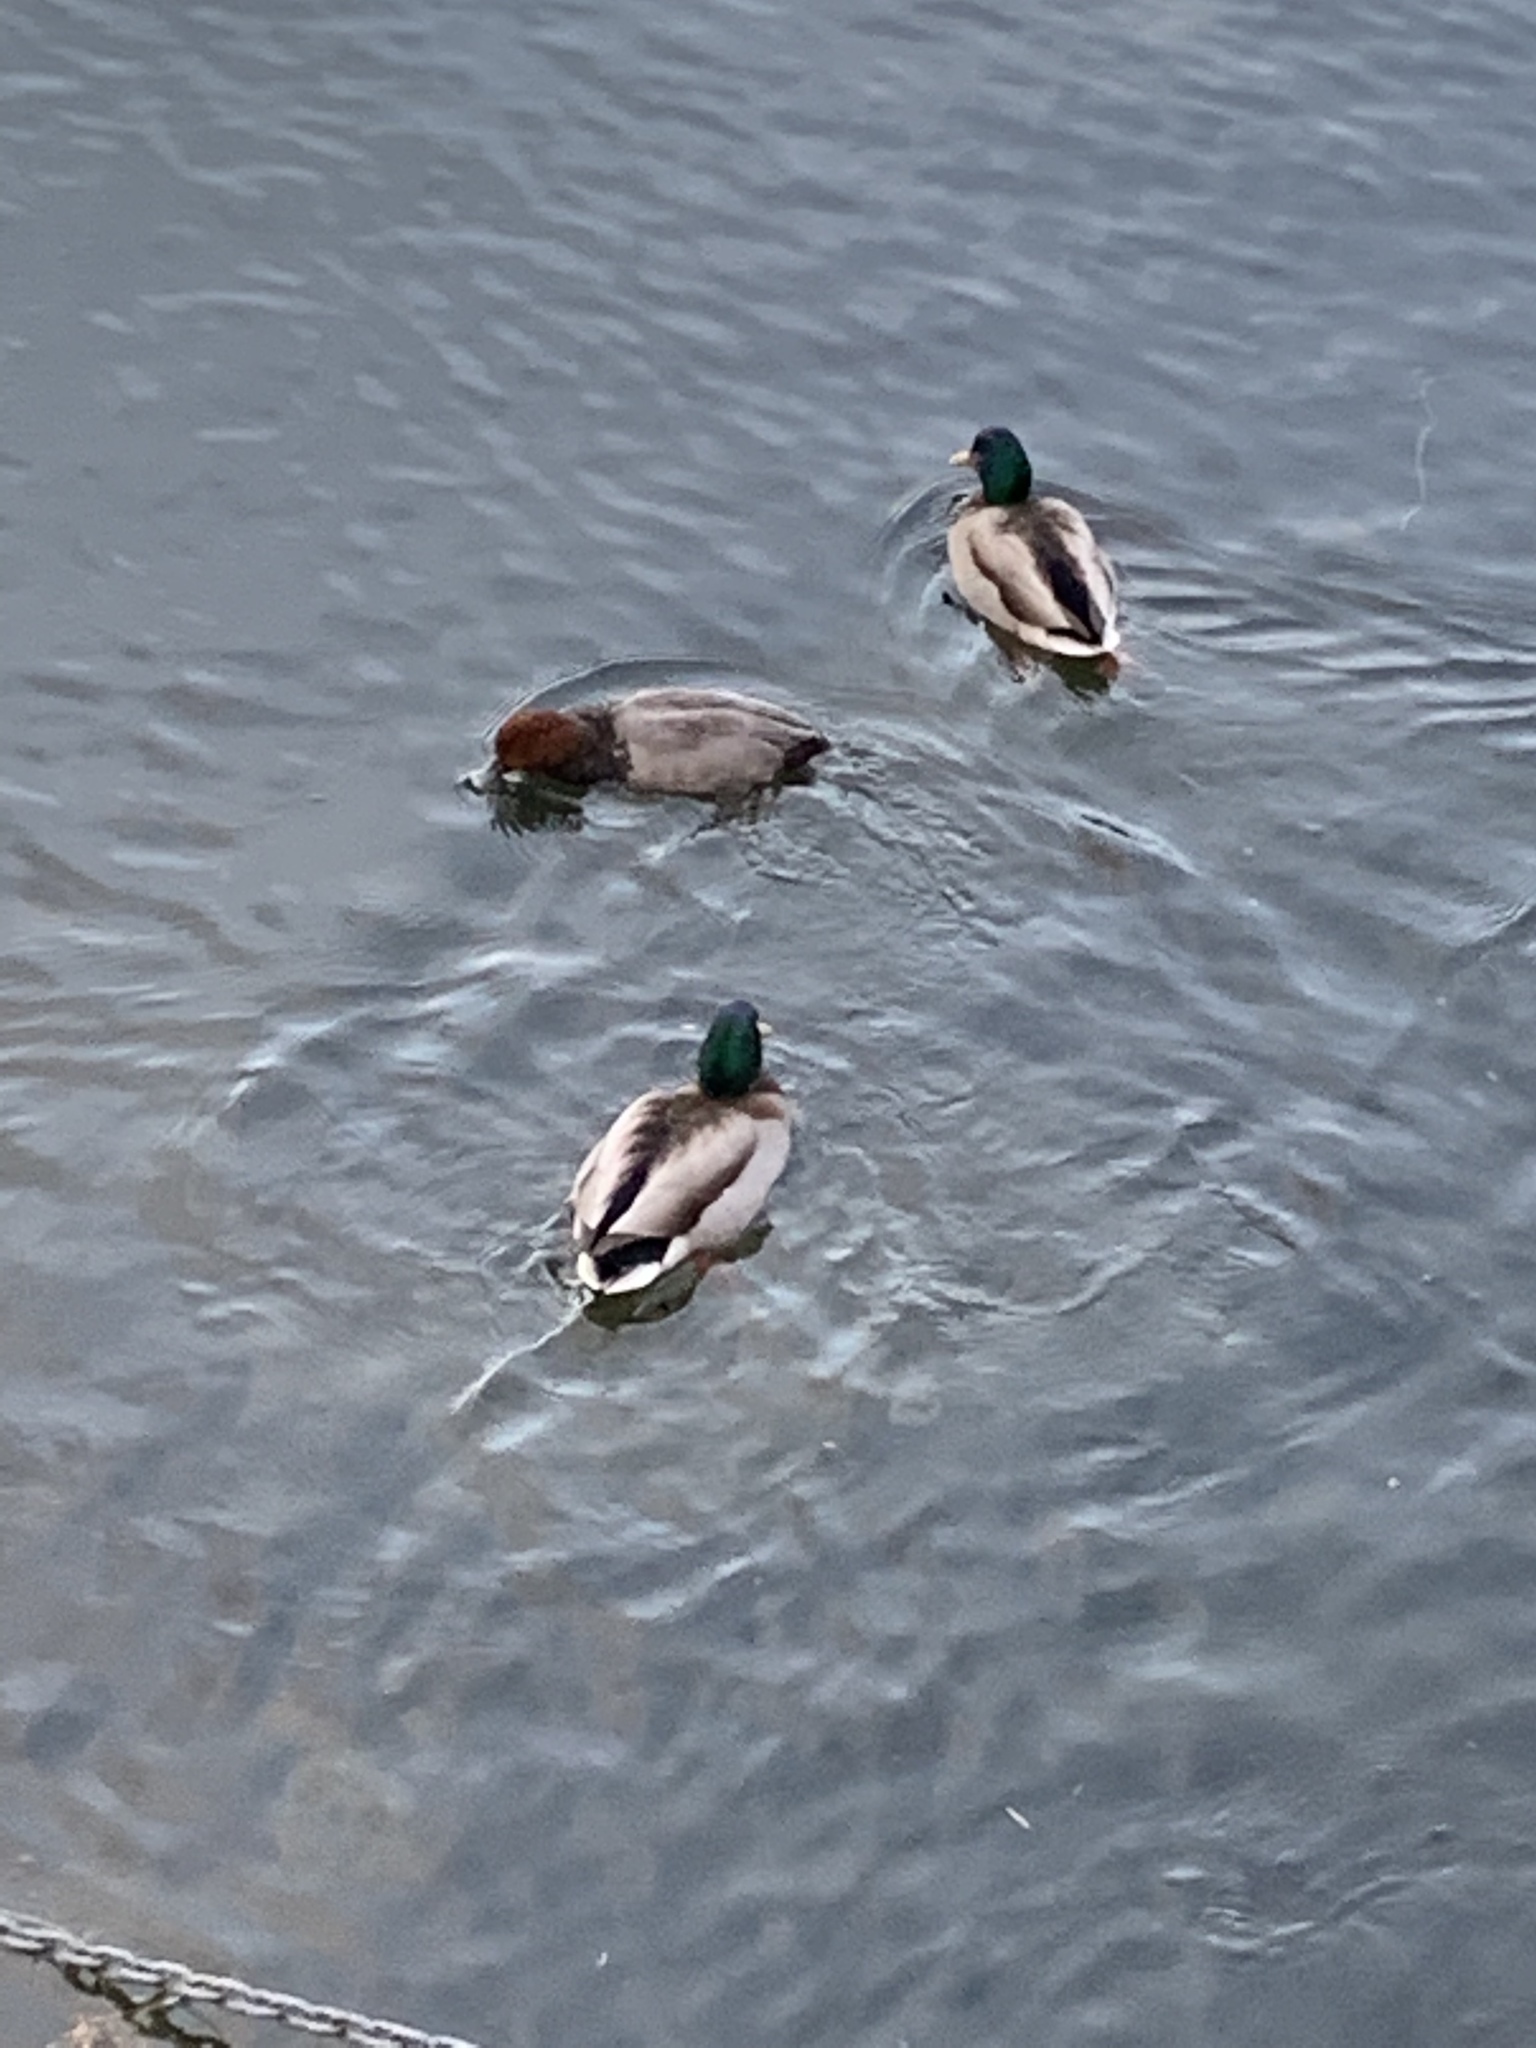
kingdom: Animalia
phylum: Chordata
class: Aves
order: Anseriformes
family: Anatidae
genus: Aythya
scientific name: Aythya americana
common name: Redhead
